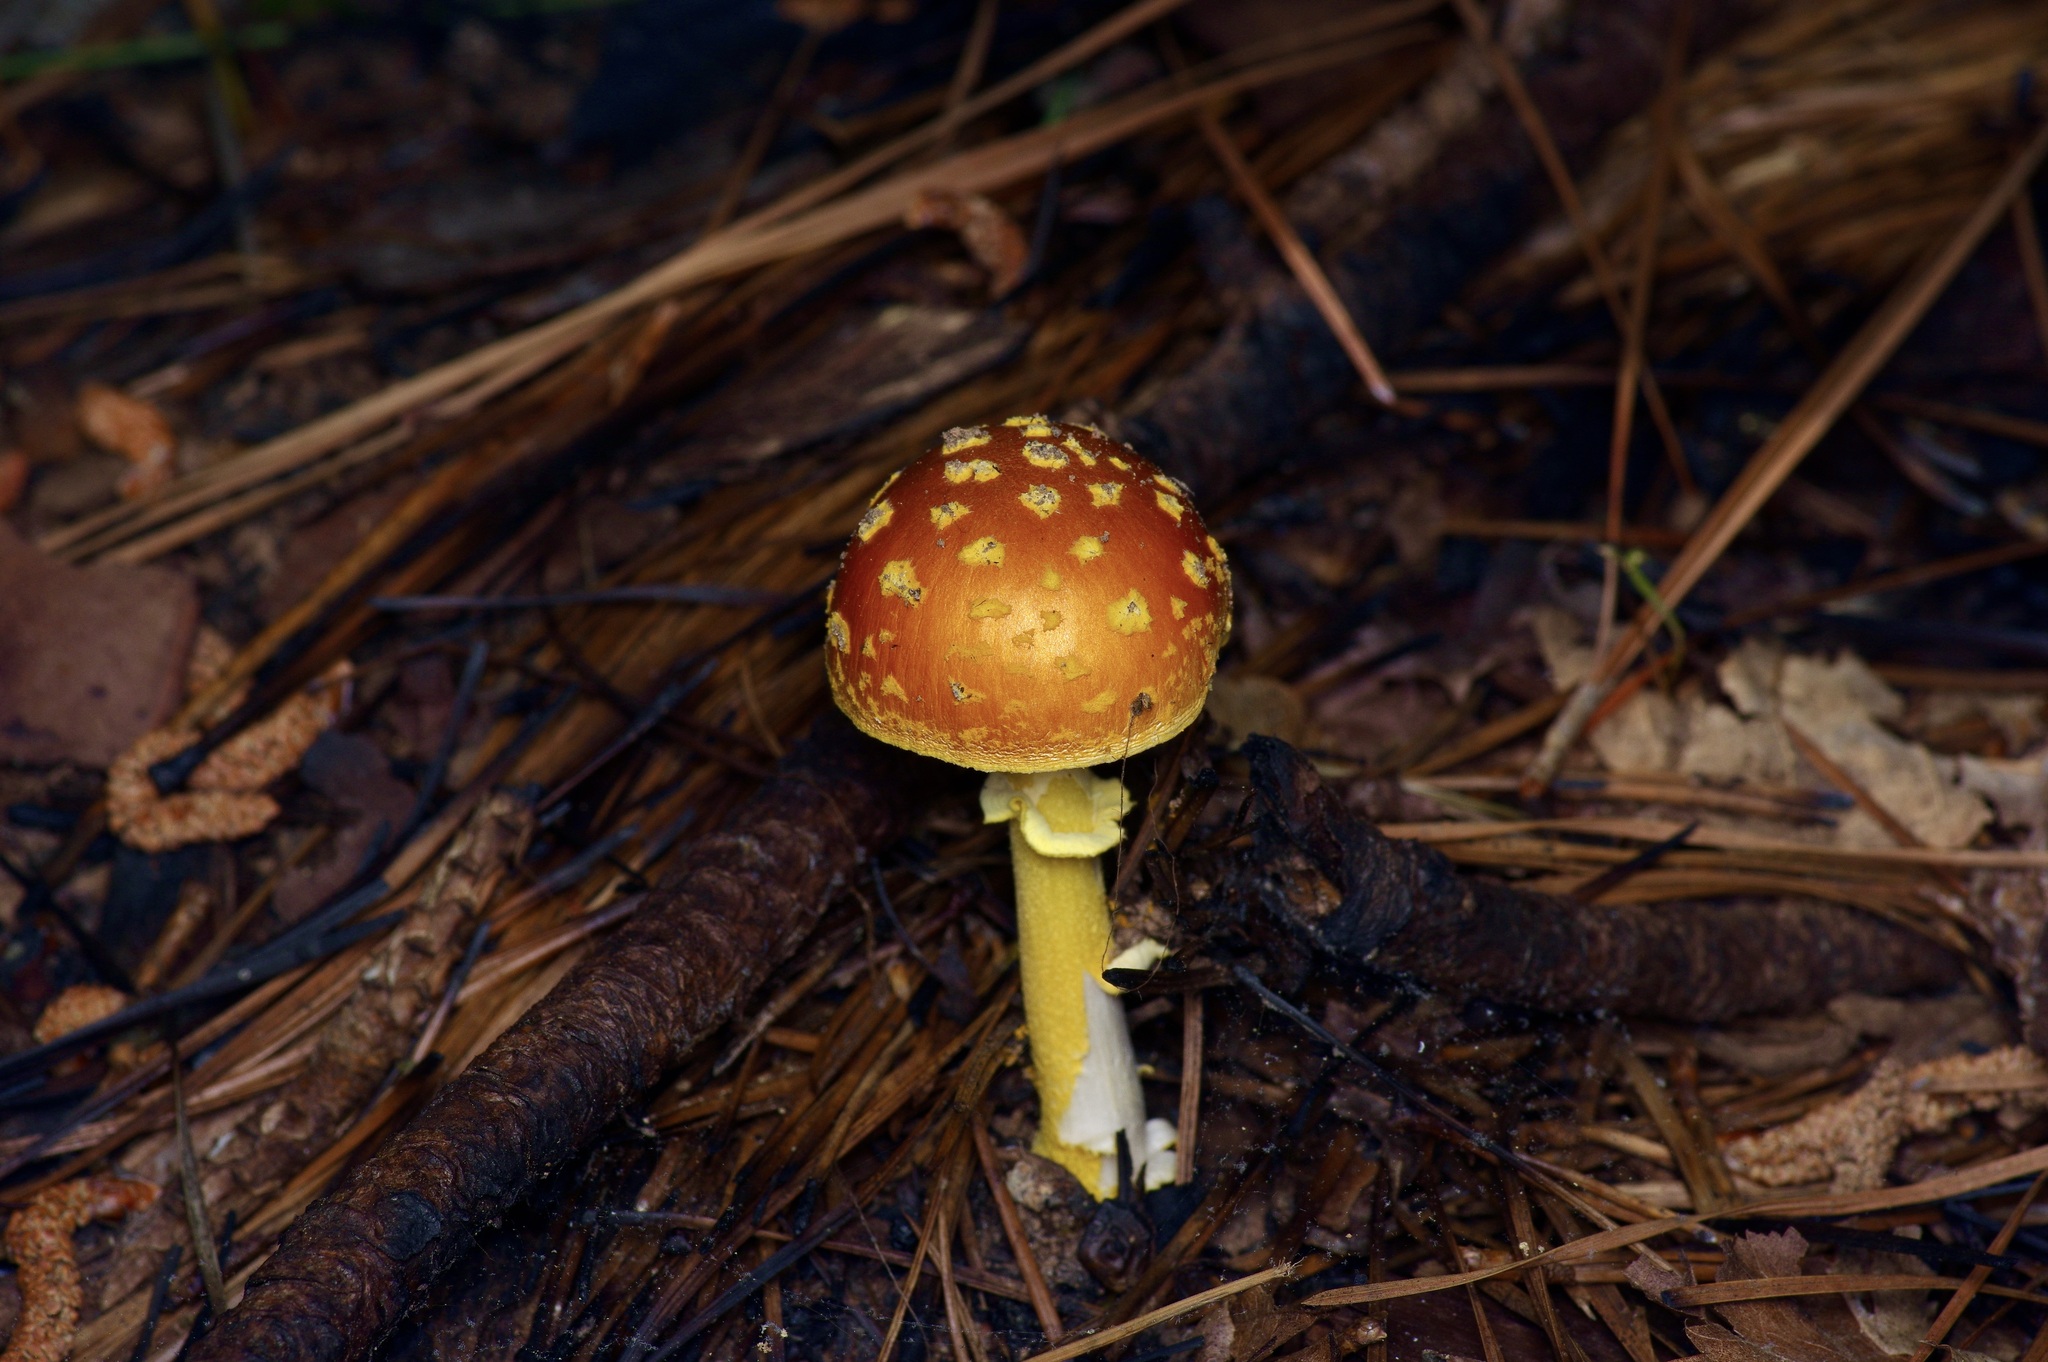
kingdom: Fungi
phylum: Basidiomycota
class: Agaricomycetes
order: Agaricales
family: Amanitaceae
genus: Amanita
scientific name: Amanita erythrocephala
